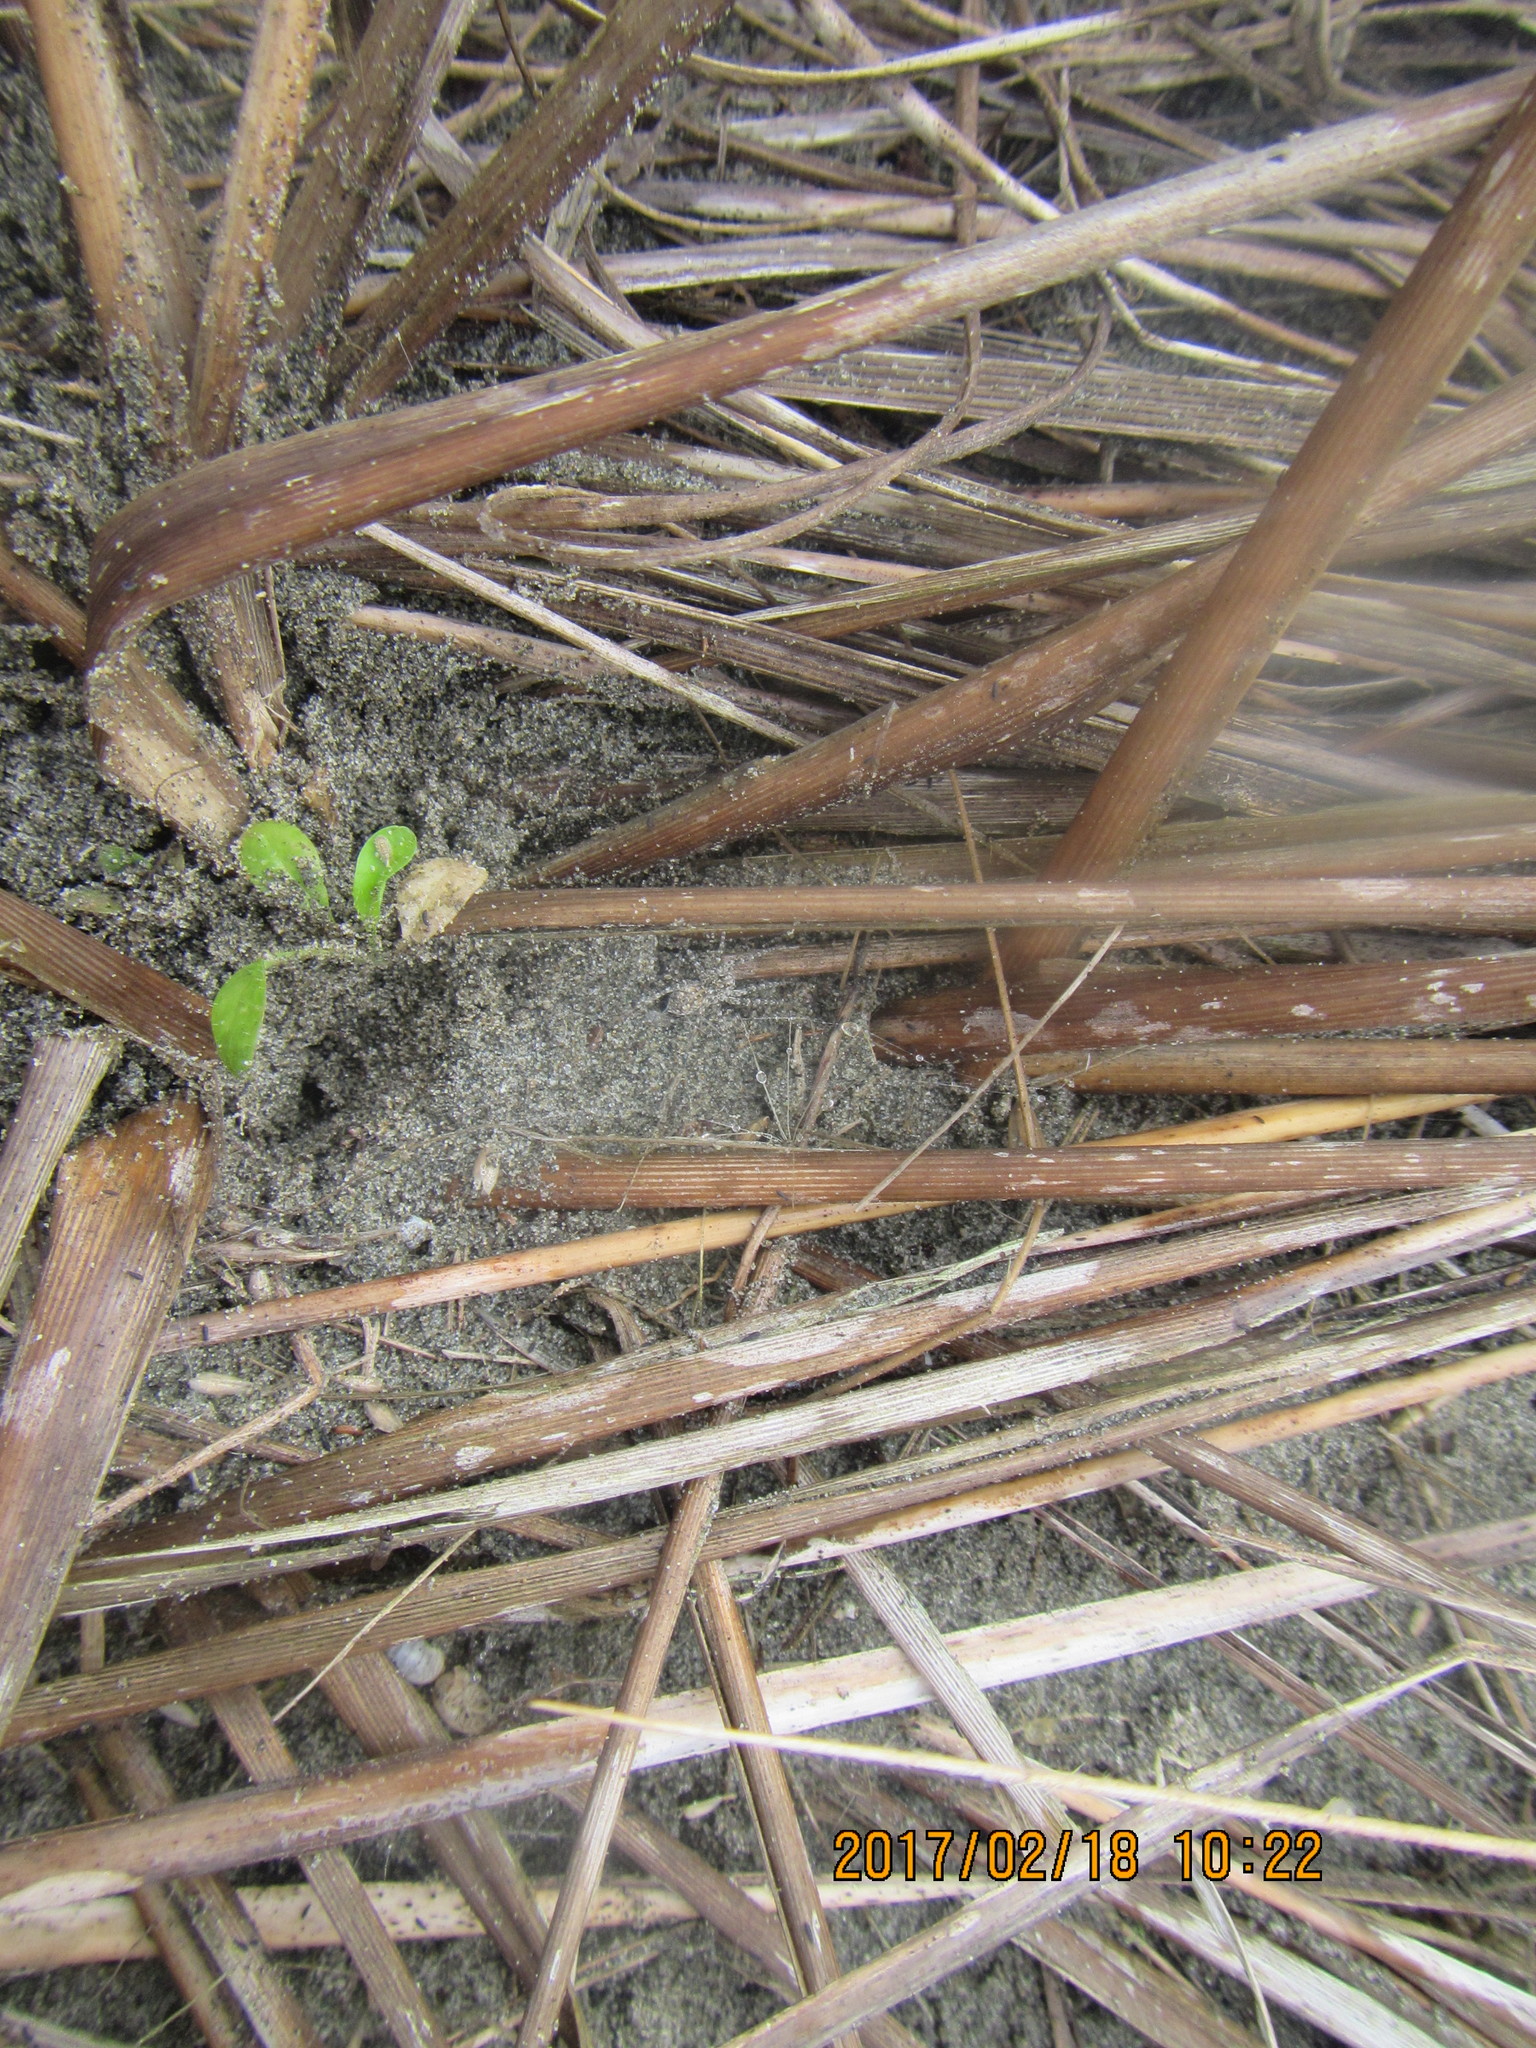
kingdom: Animalia
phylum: Arthropoda
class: Arachnida
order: Araneae
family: Lycosidae
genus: Anoteropsis
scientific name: Anoteropsis litoralis
